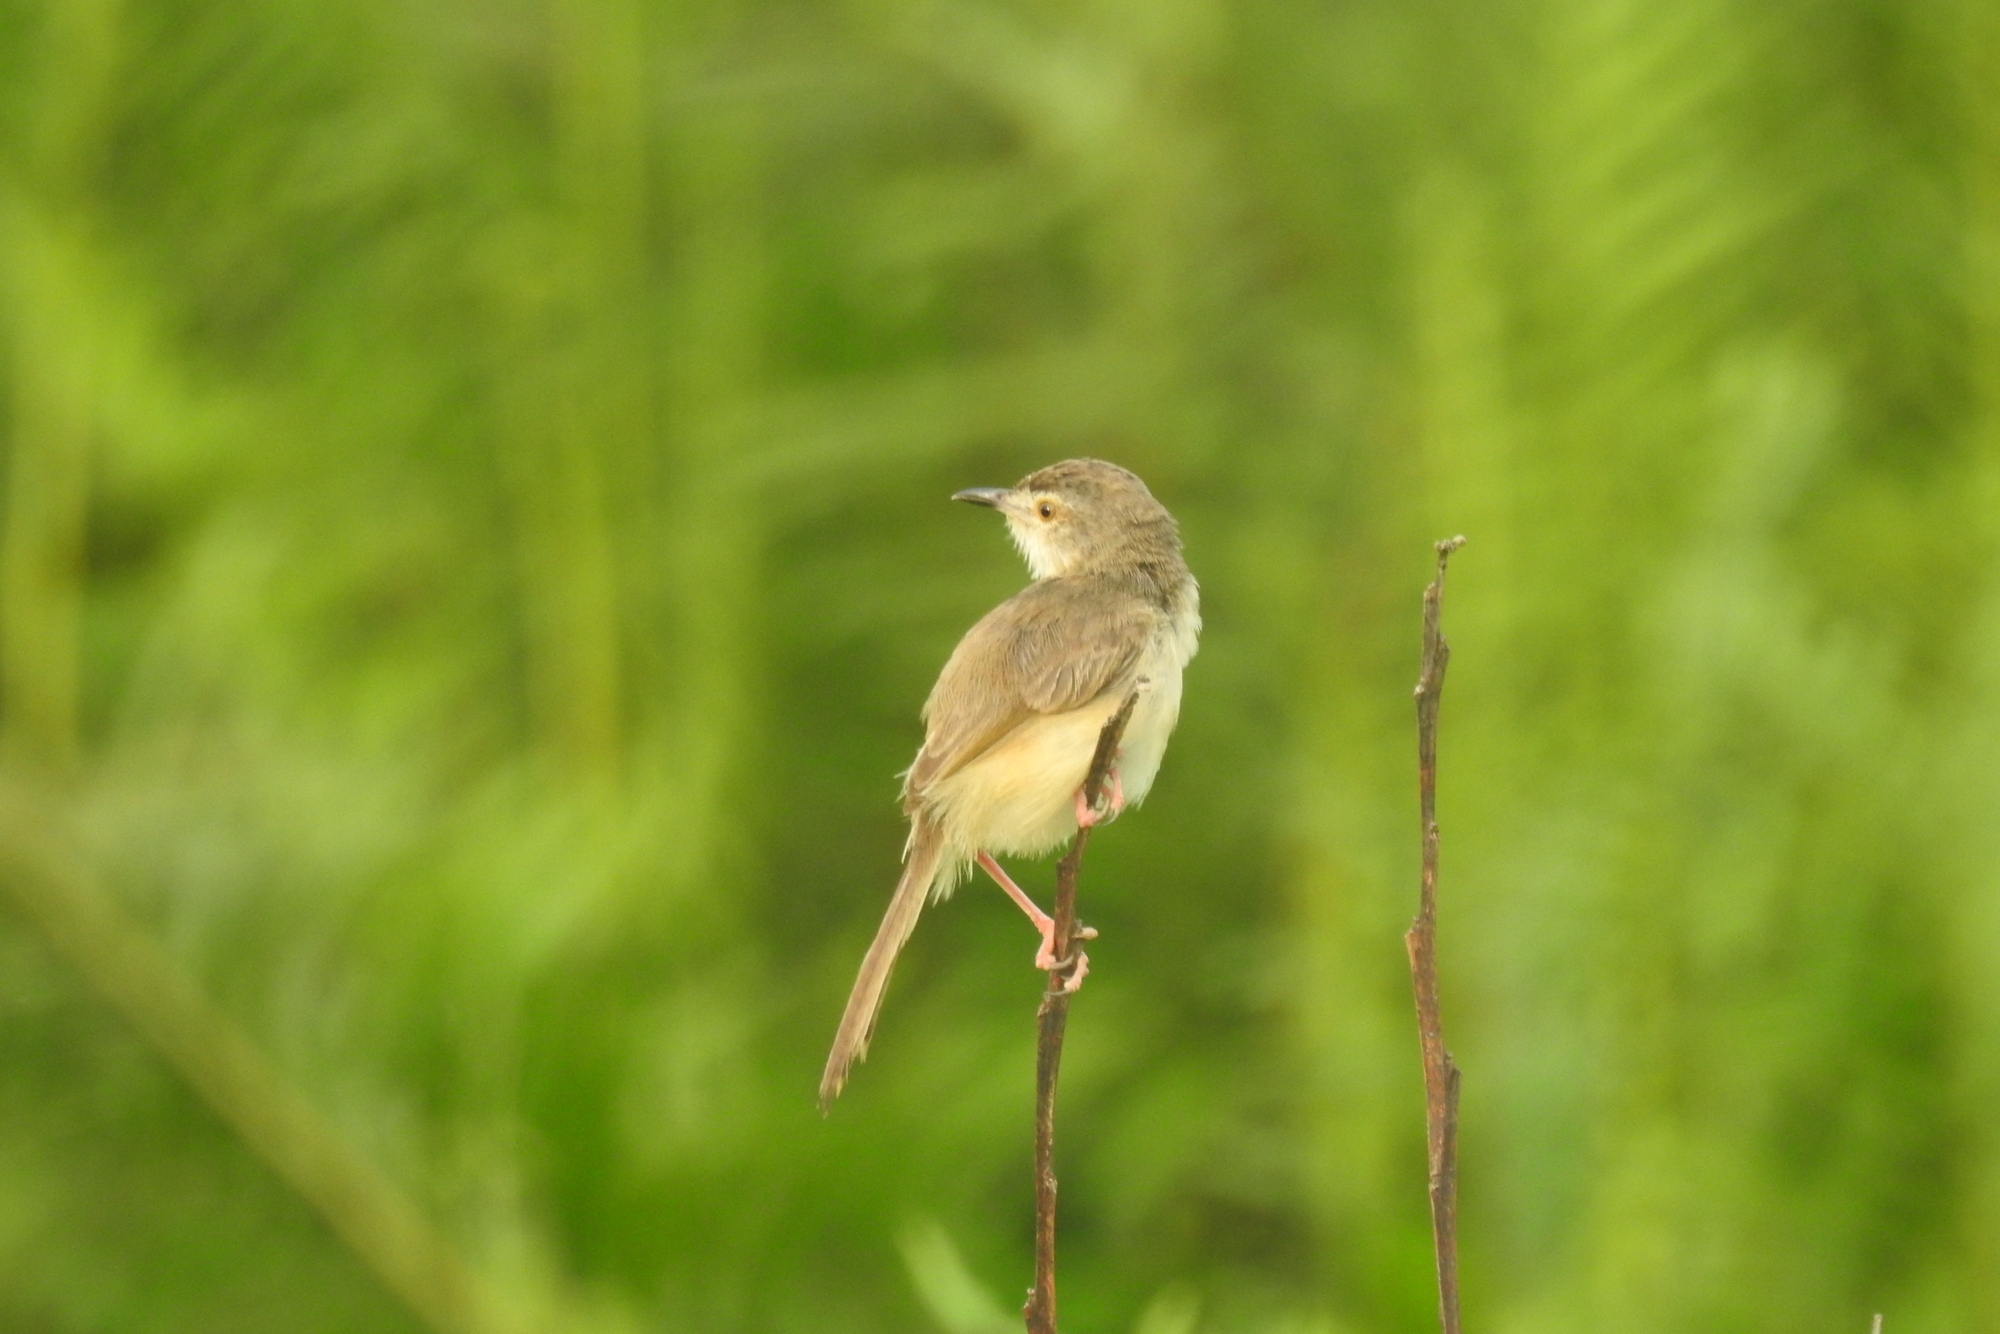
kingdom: Animalia
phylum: Chordata
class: Aves
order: Passeriformes
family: Cisticolidae
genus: Prinia
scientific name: Prinia inornata
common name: Plain prinia
